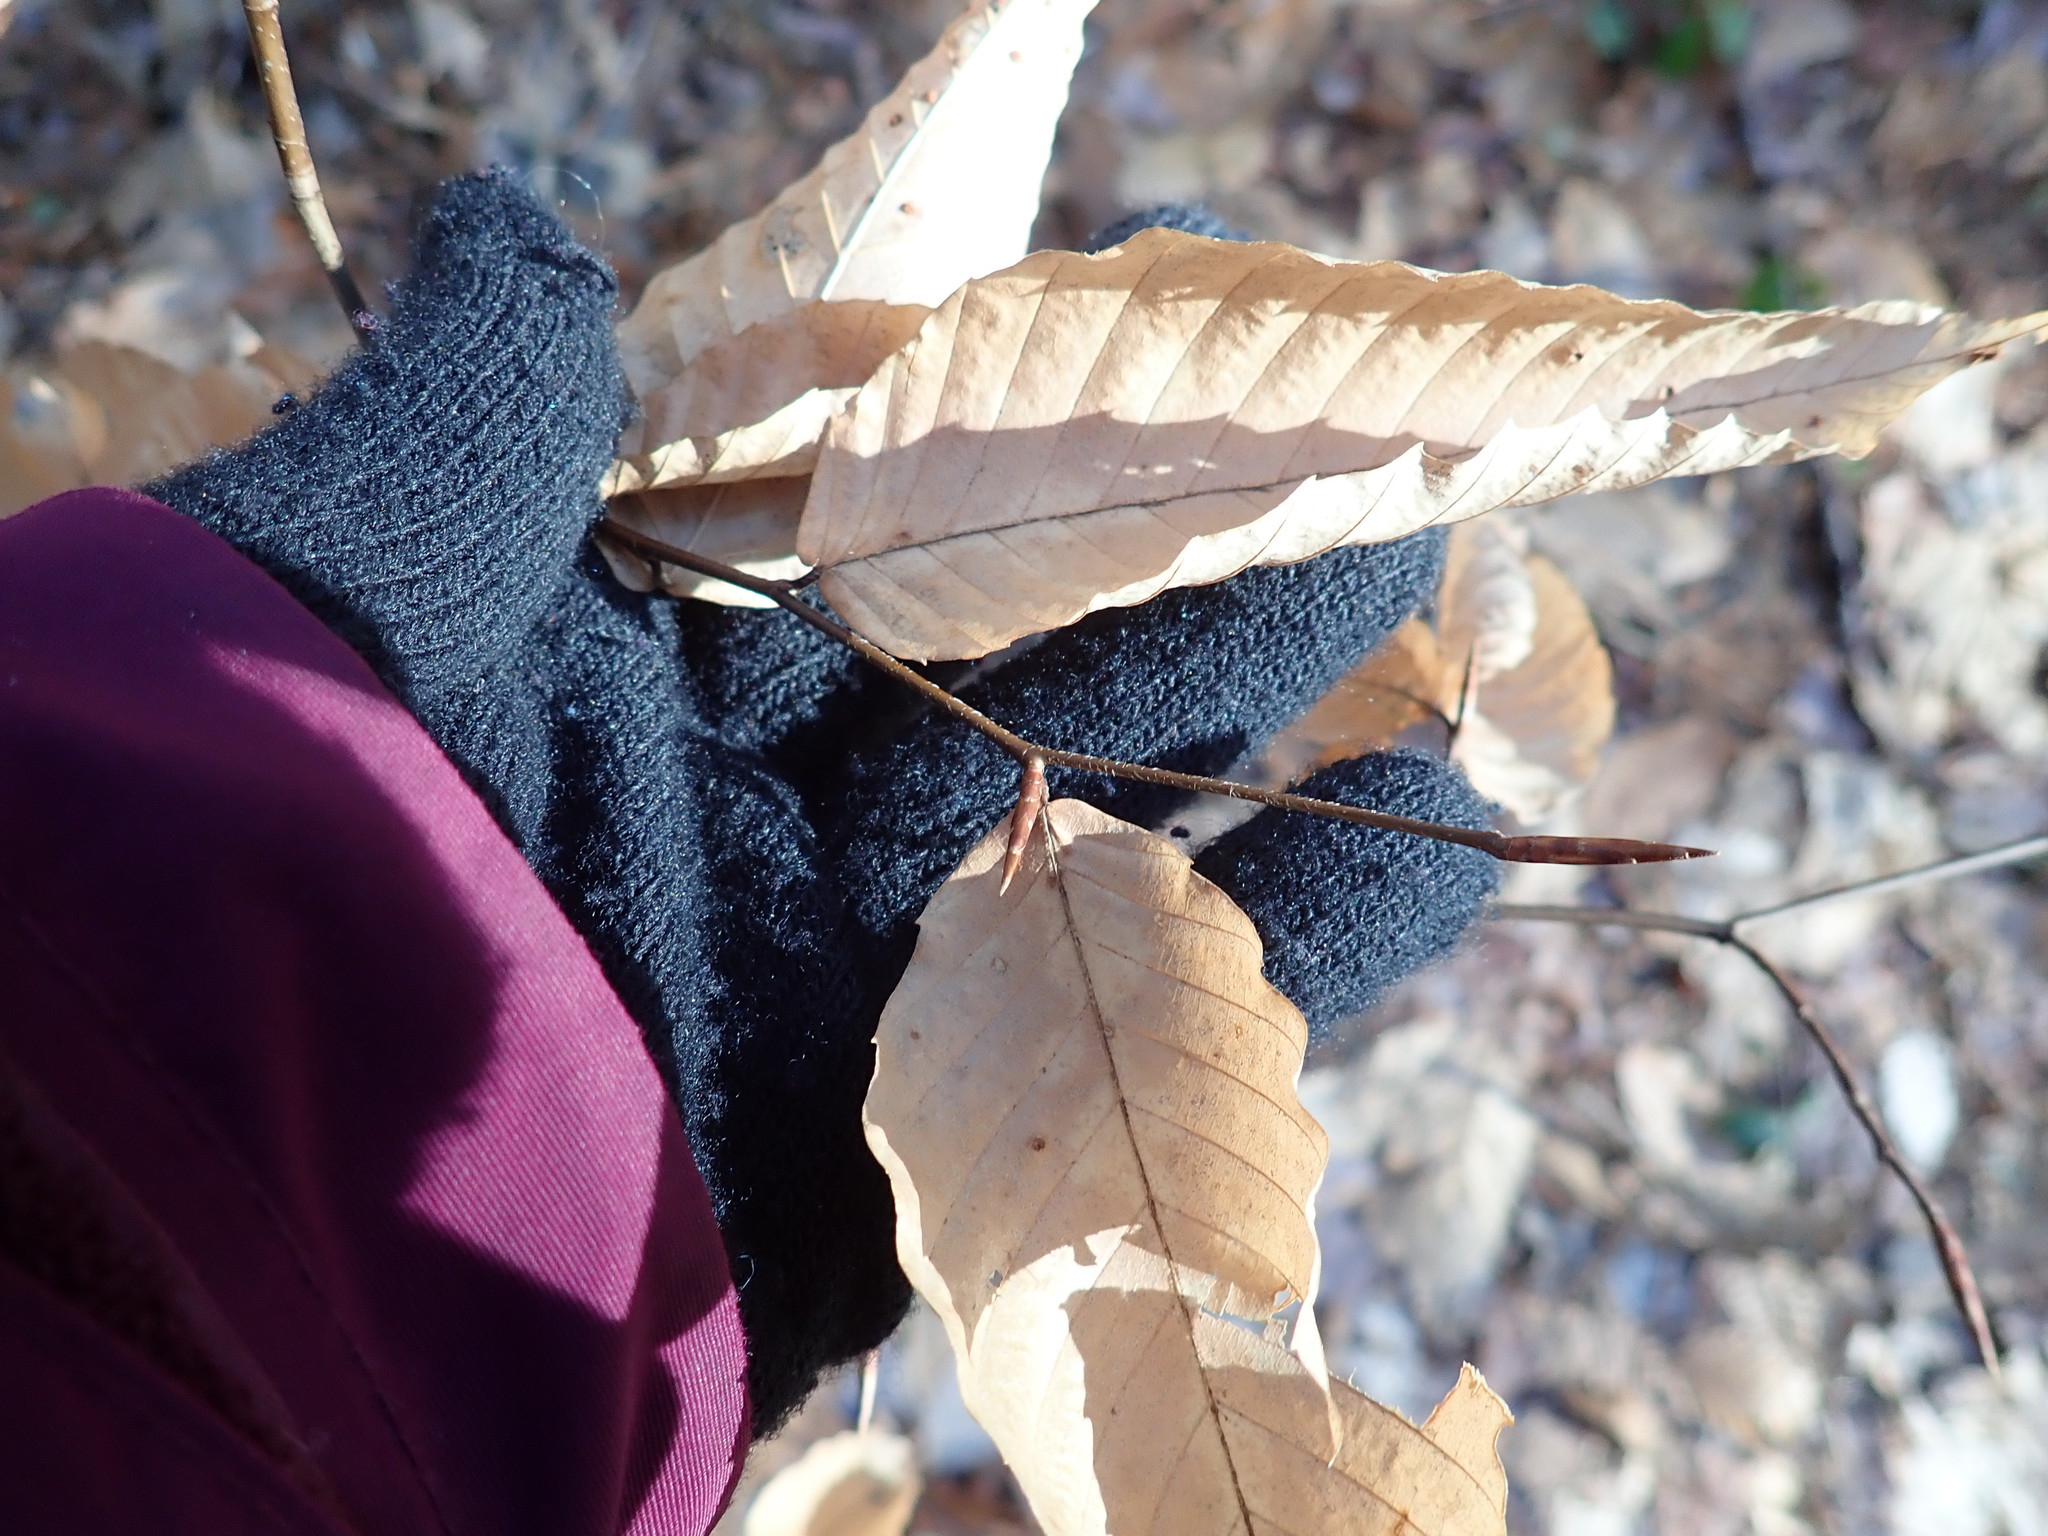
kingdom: Plantae
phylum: Tracheophyta
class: Magnoliopsida
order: Fagales
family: Fagaceae
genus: Fagus
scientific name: Fagus grandifolia
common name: American beech
